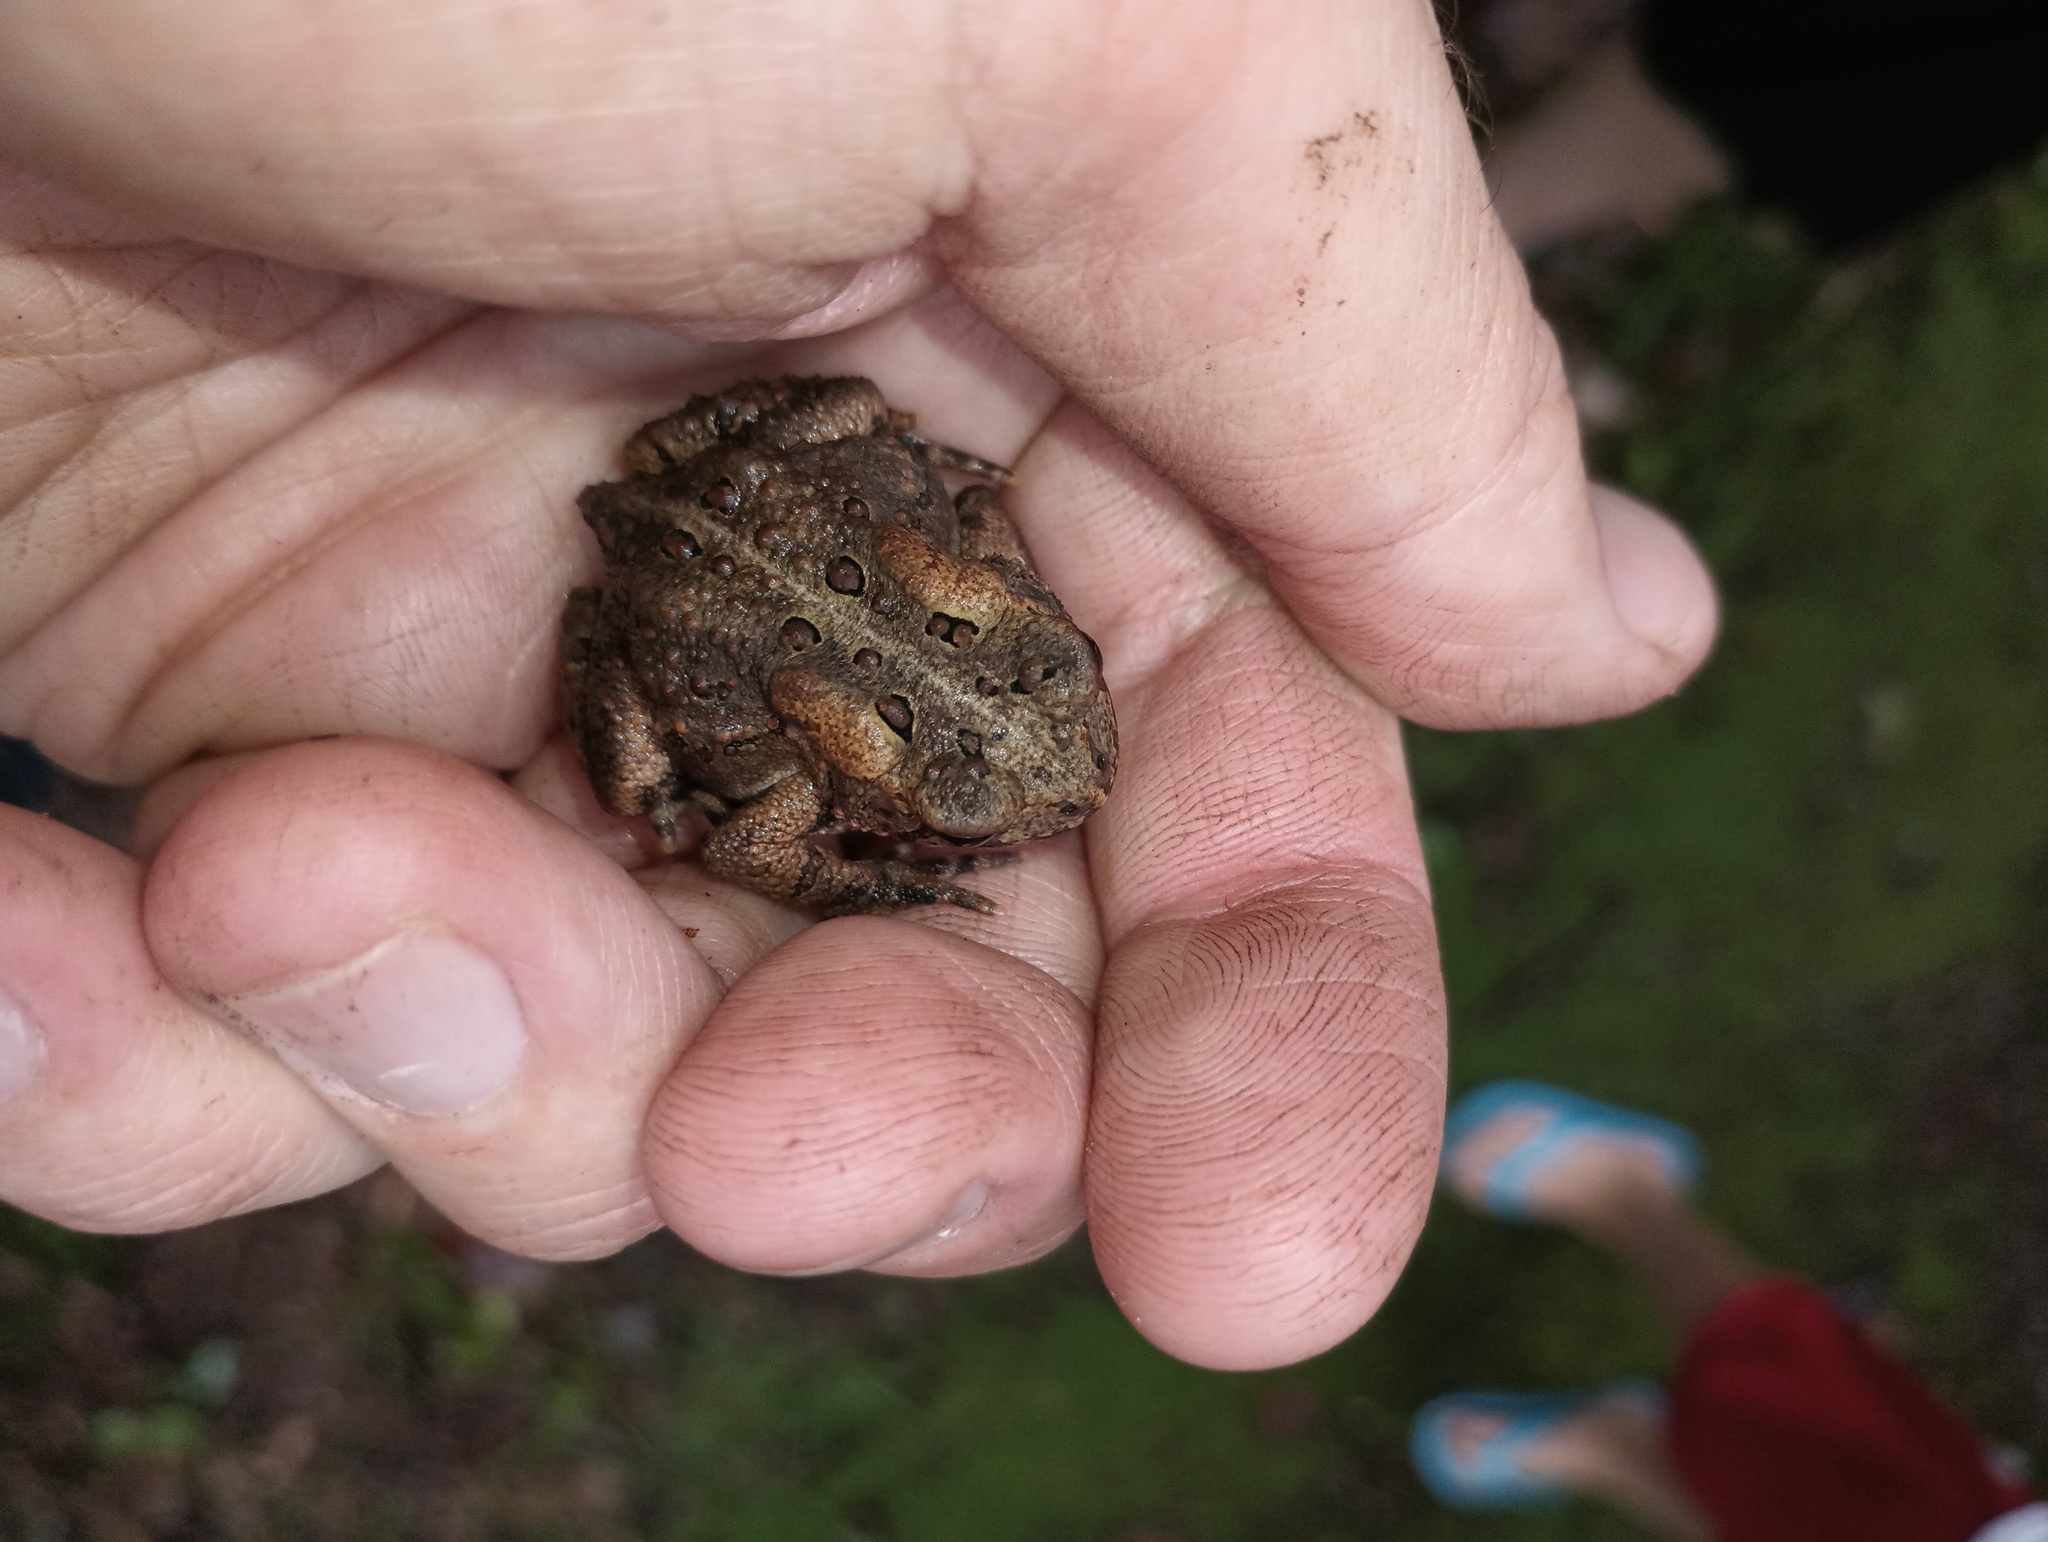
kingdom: Animalia
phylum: Chordata
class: Amphibia
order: Anura
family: Bufonidae
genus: Anaxyrus
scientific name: Anaxyrus americanus
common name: American toad
